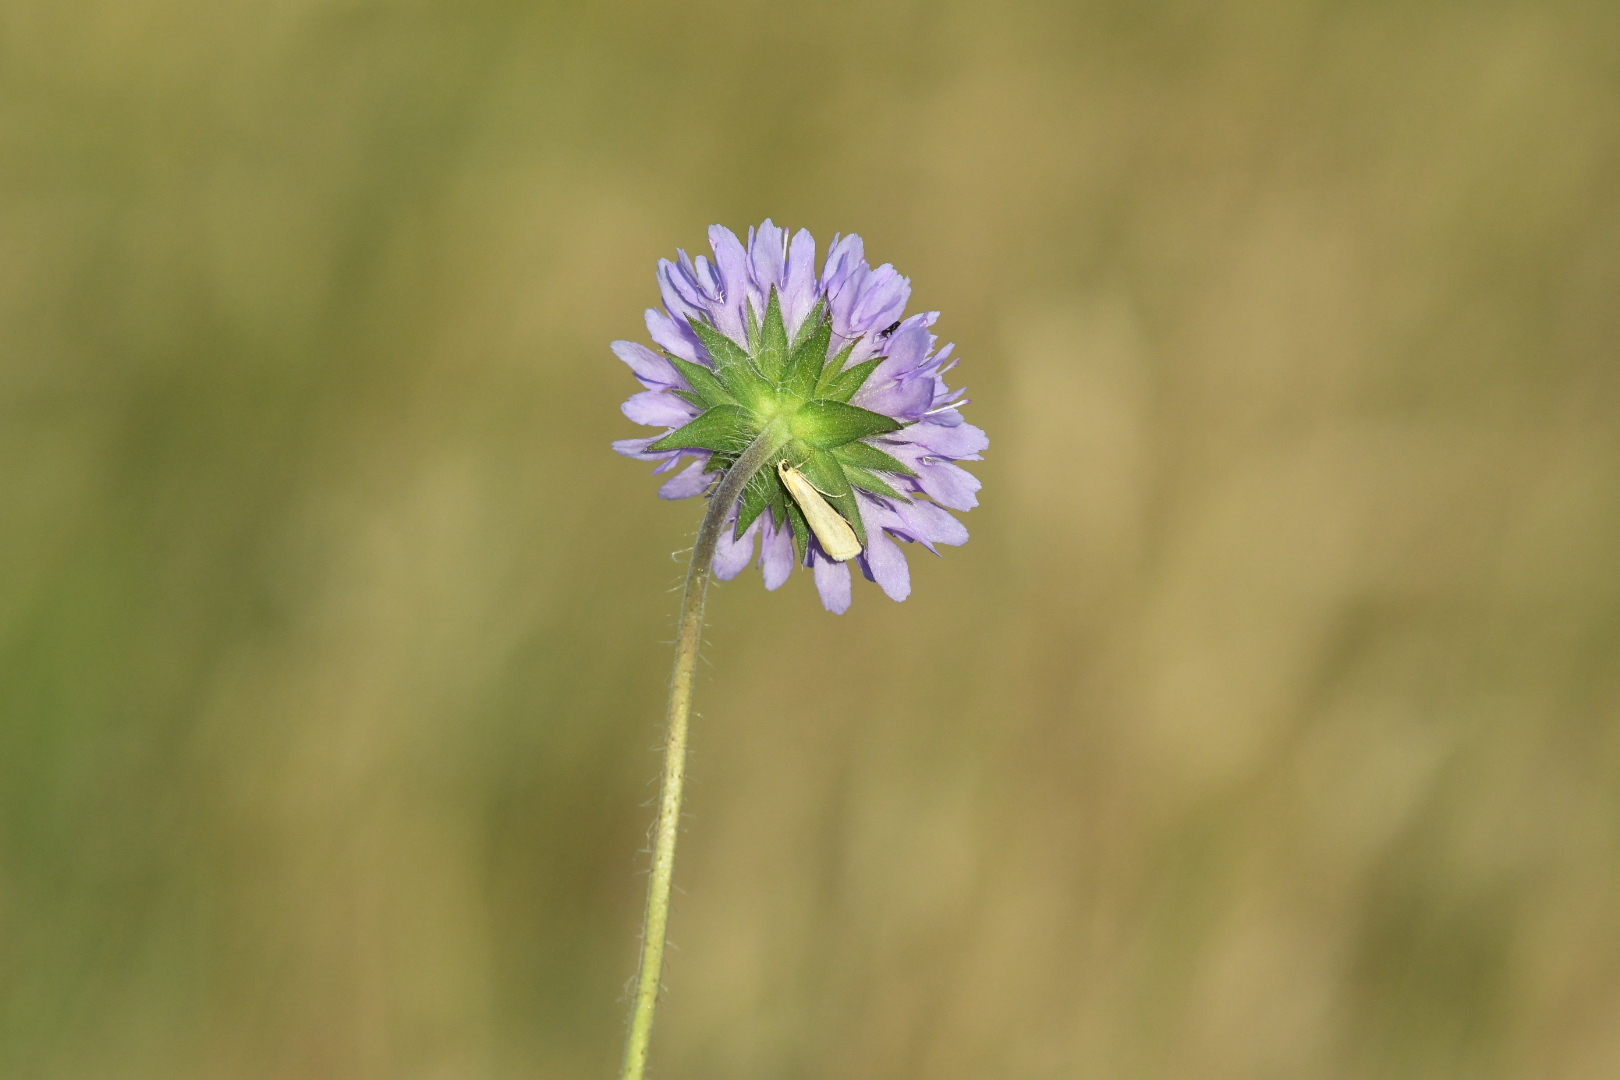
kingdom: Animalia
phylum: Arthropoda
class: Insecta
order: Lepidoptera
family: Pyralidae
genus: Eurhodope
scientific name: Eurhodope cirrigerella
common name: Hairy knot-horn
